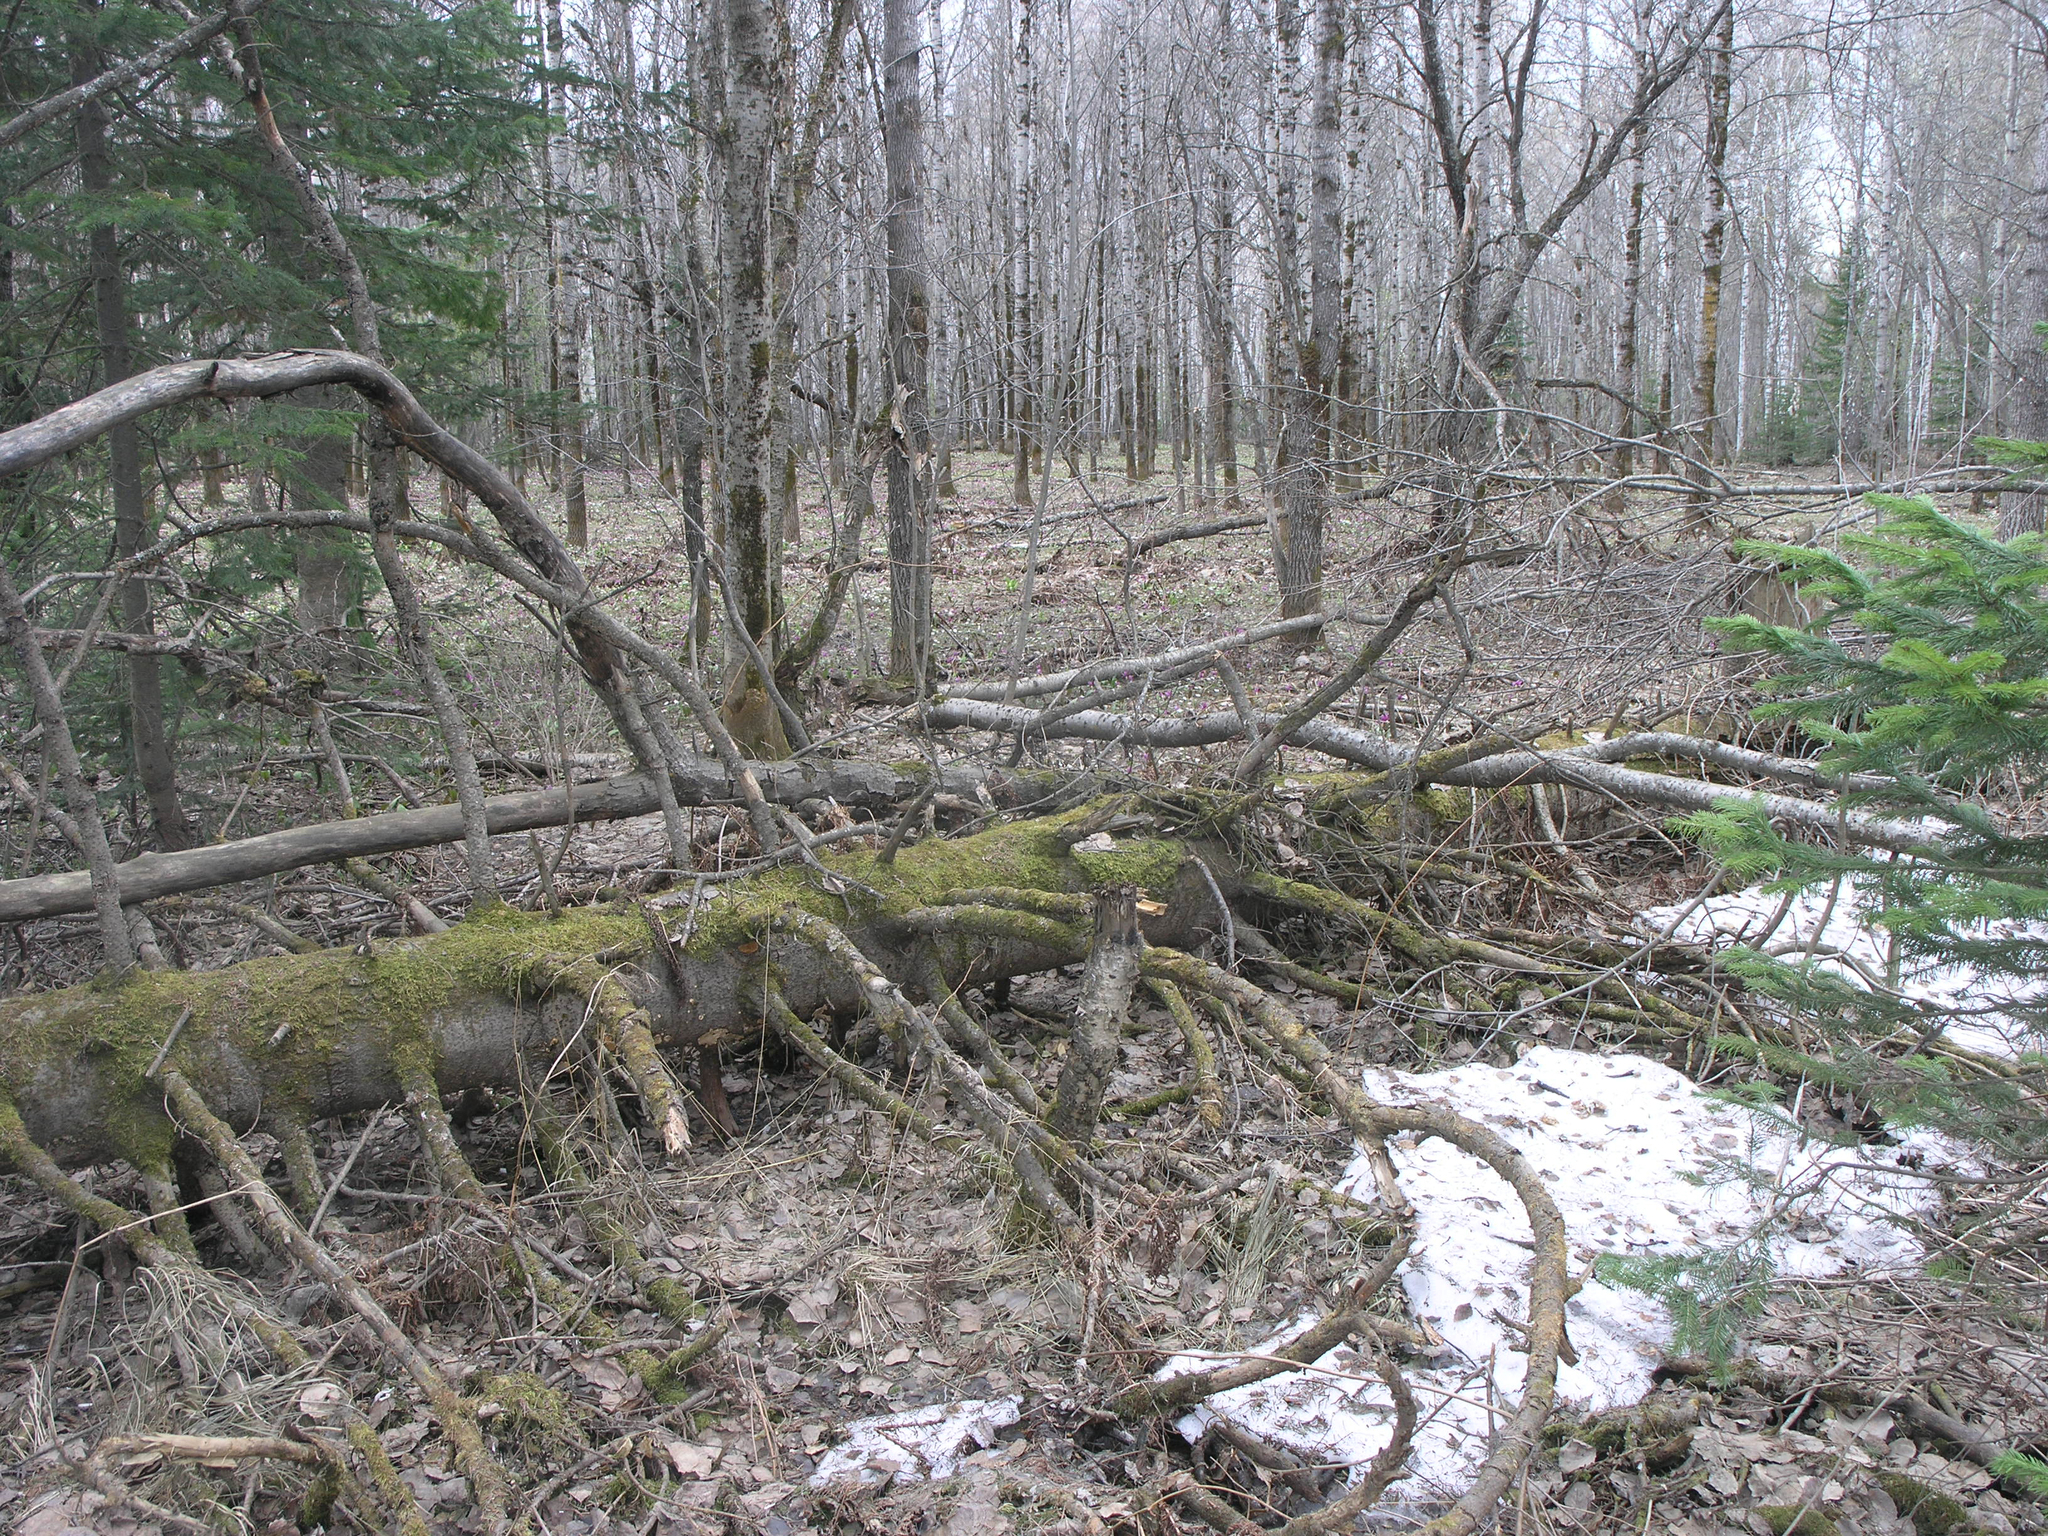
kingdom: Plantae
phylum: Tracheophyta
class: Pinopsida
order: Pinales
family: Pinaceae
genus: Abies
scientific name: Abies sibirica
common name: Siberian fir
